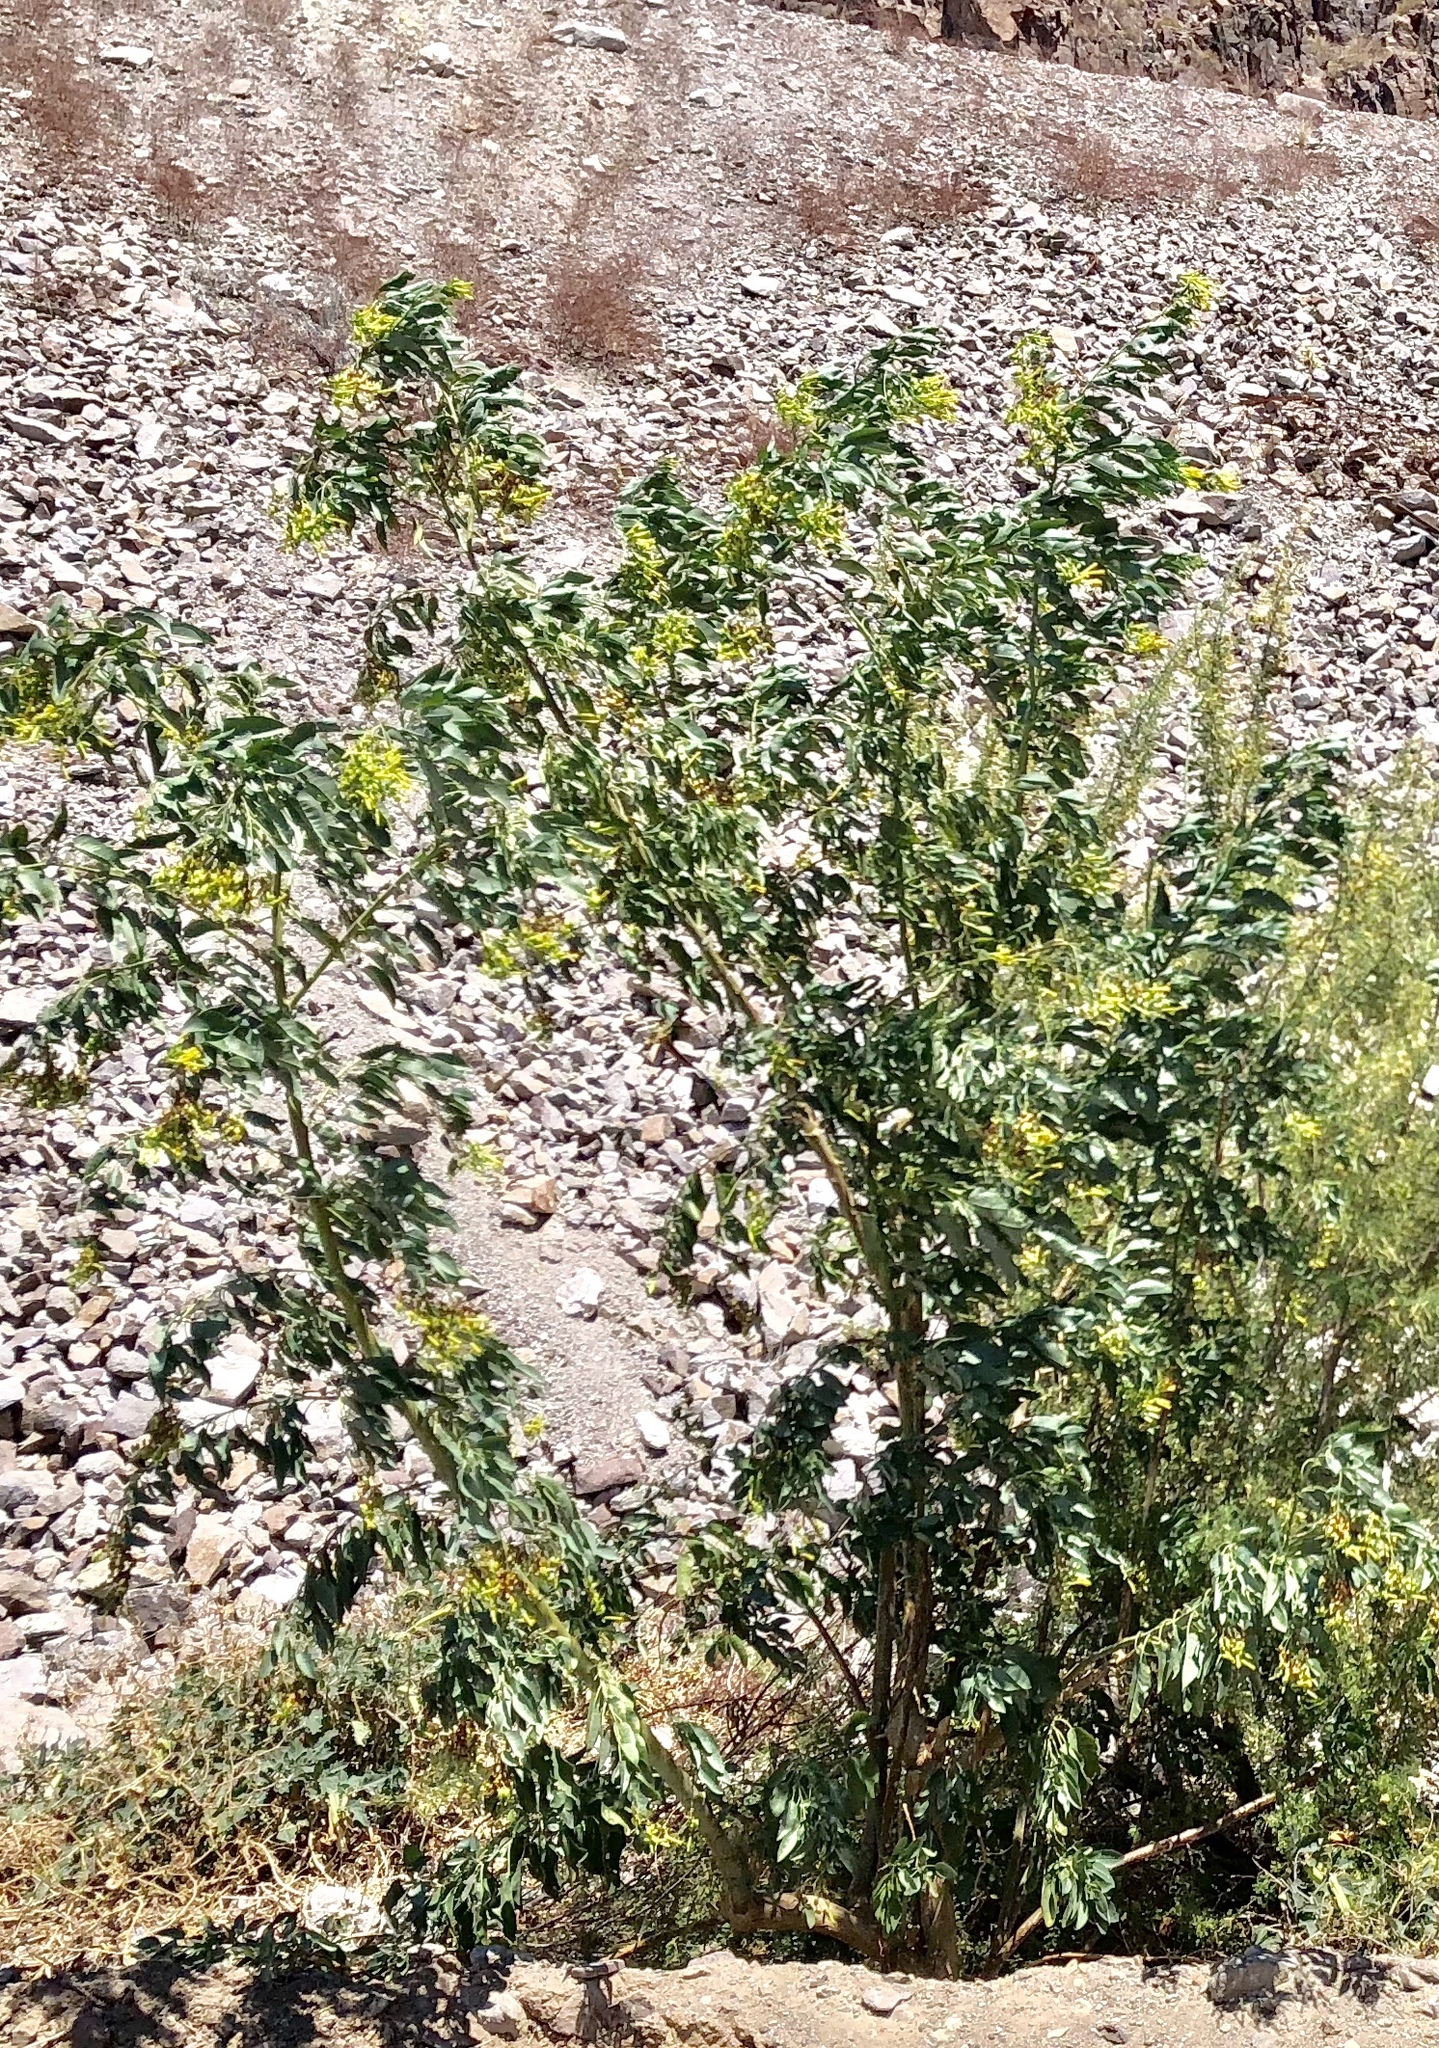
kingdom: Plantae
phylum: Tracheophyta
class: Magnoliopsida
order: Solanales
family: Solanaceae
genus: Nicotiana
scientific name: Nicotiana glauca
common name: Tree tobacco
